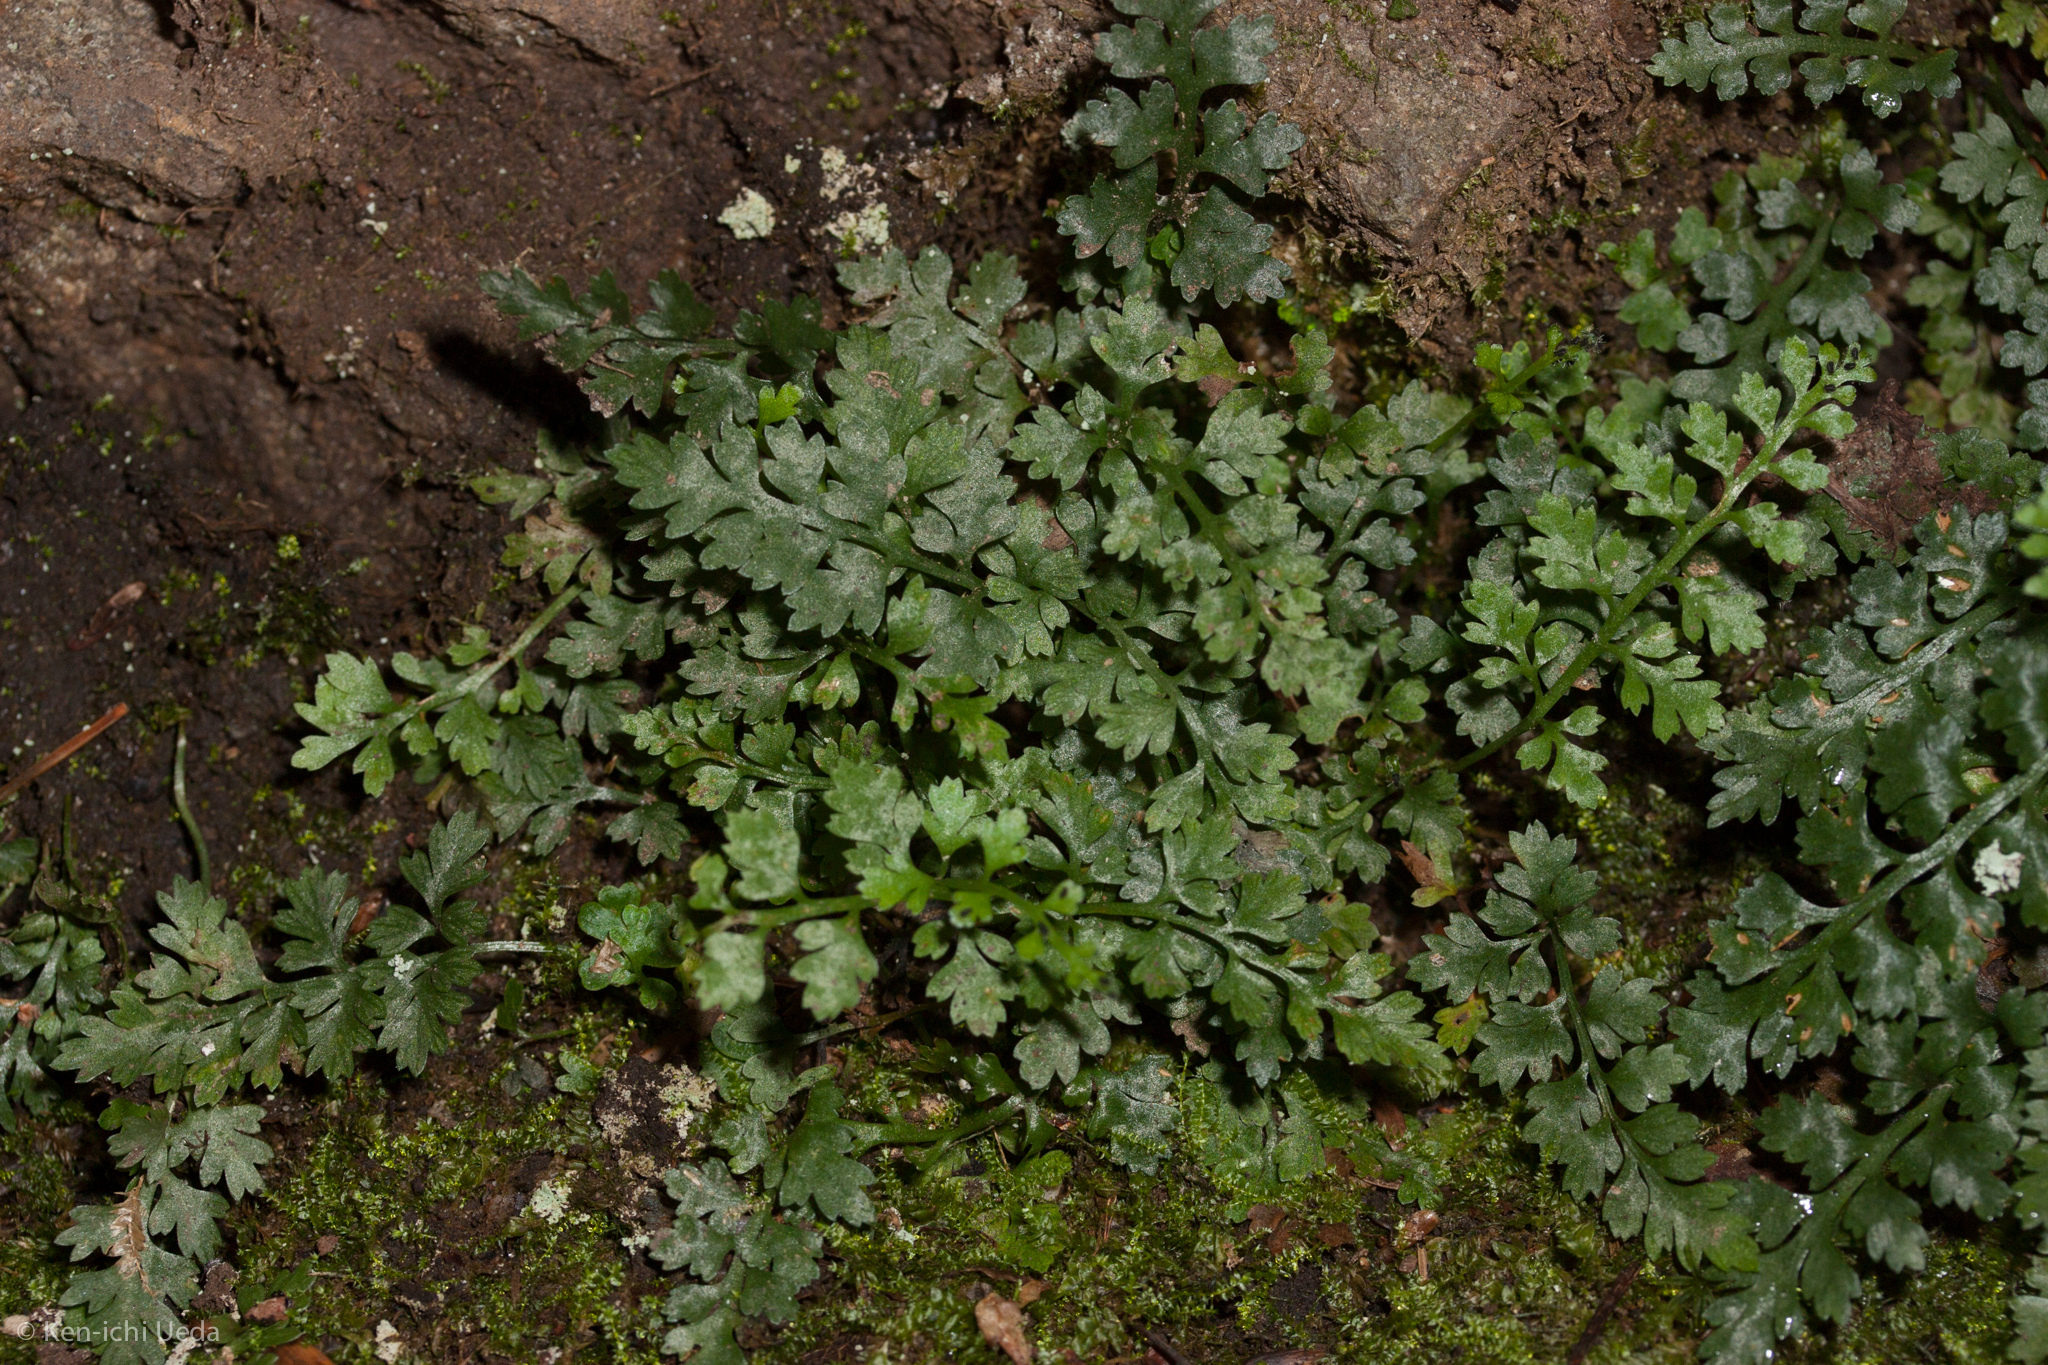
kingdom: Plantae
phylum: Tracheophyta
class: Polypodiopsida
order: Polypodiales
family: Aspleniaceae
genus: Asplenium
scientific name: Asplenium montanum
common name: Mountain spleenwort
